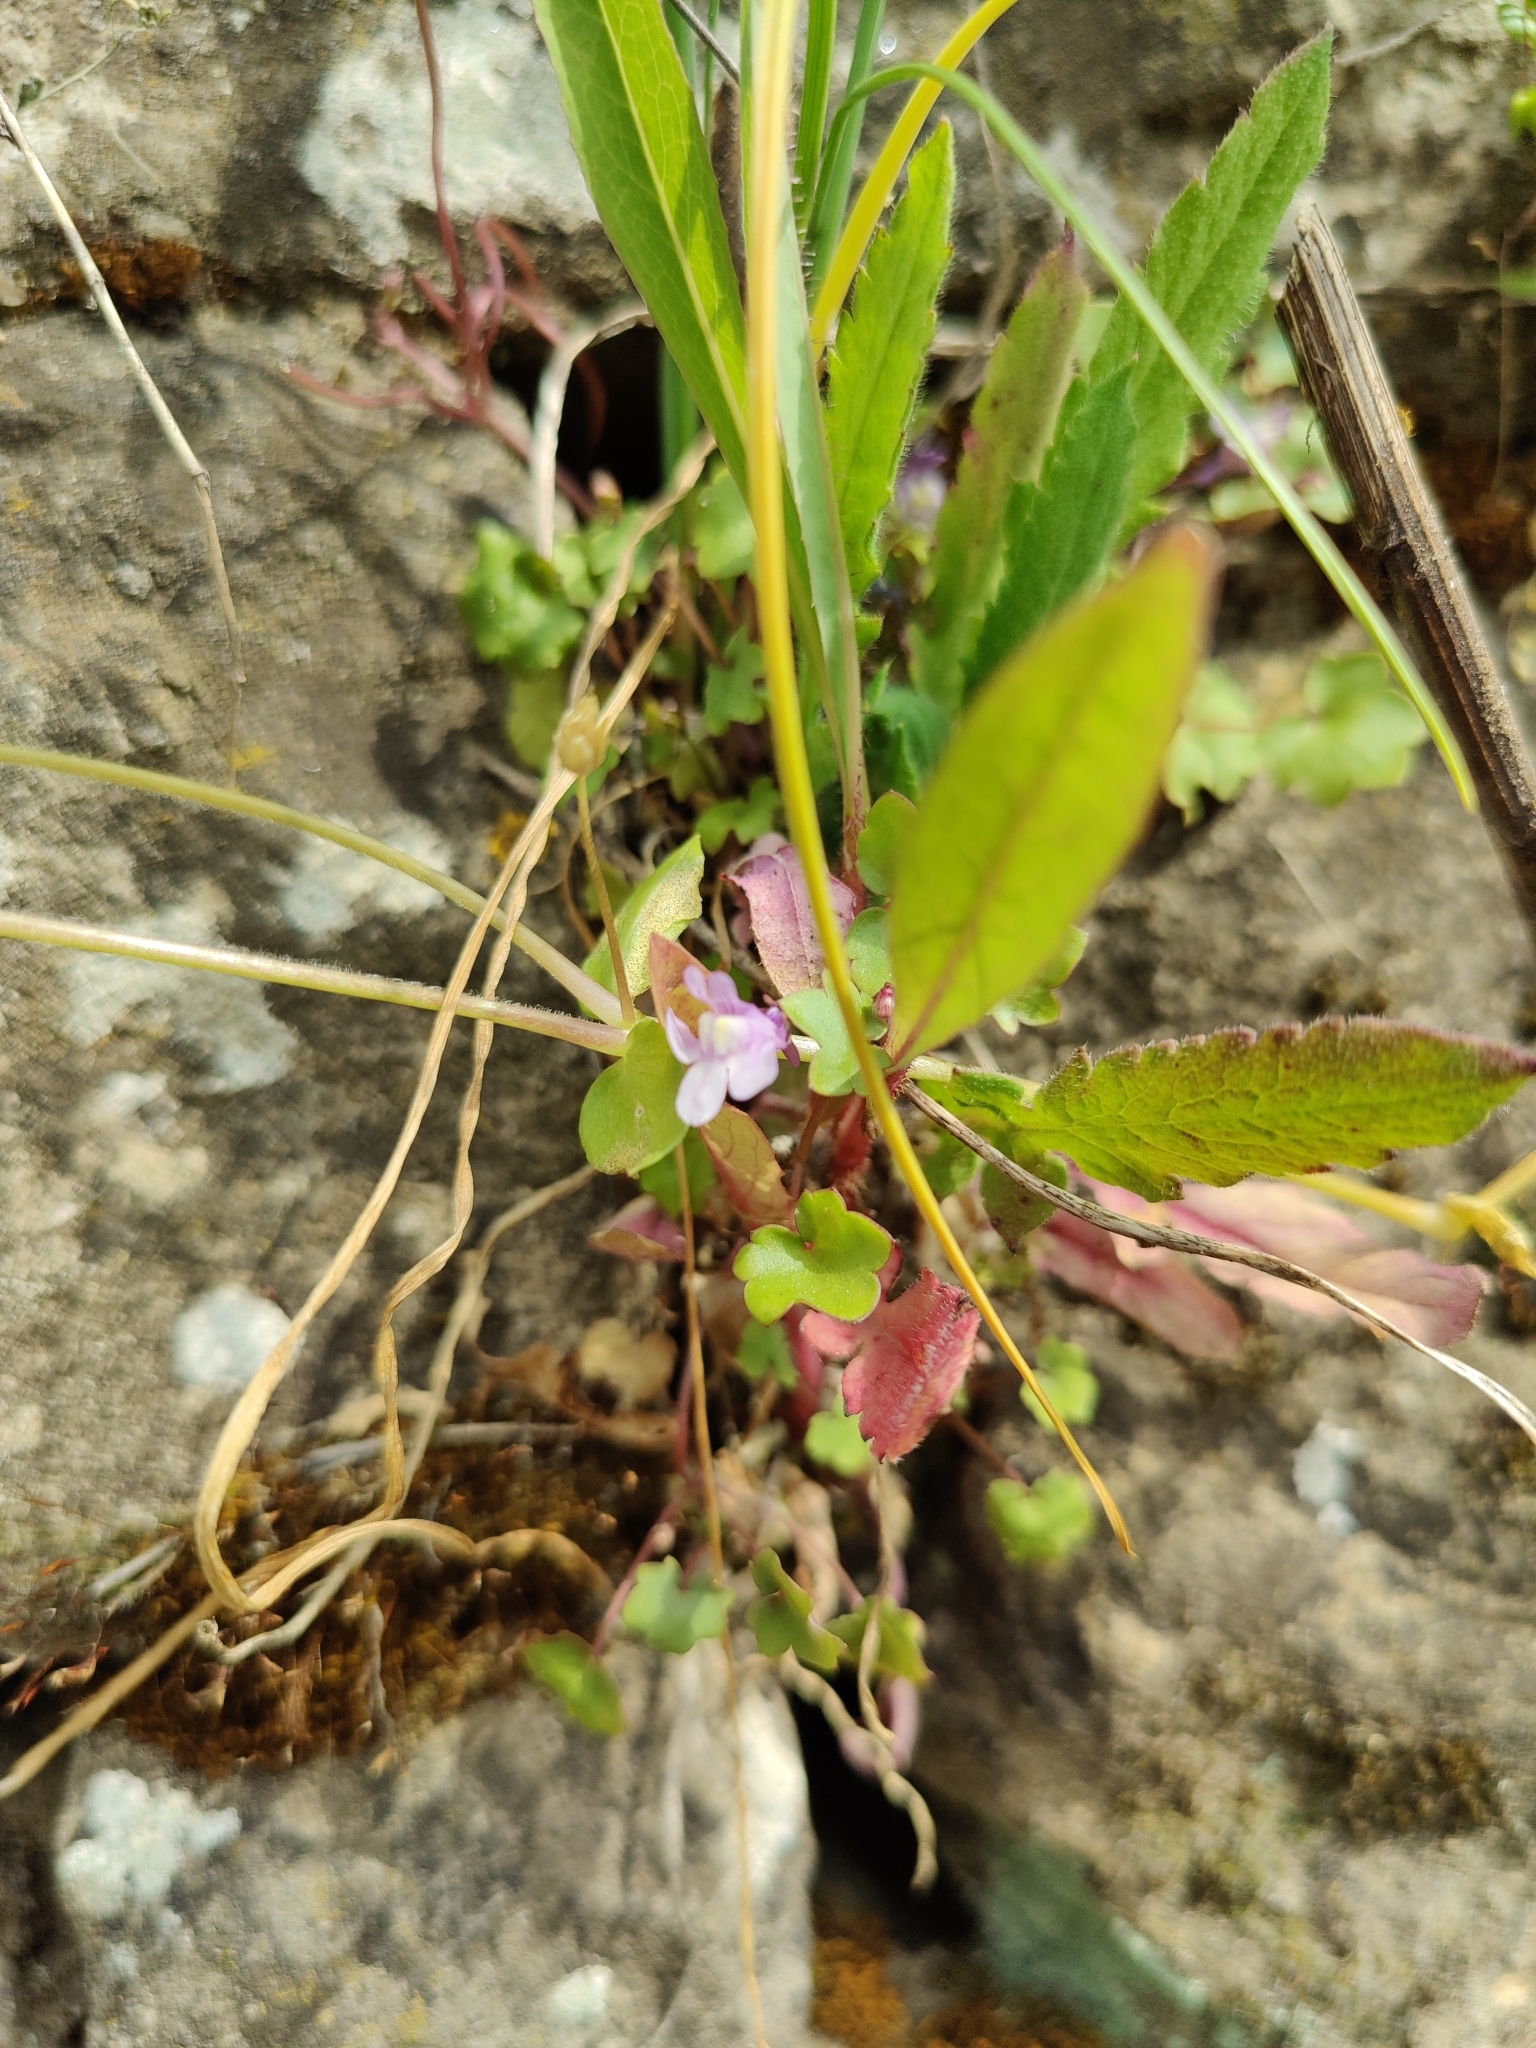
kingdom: Plantae
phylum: Tracheophyta
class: Magnoliopsida
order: Lamiales
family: Plantaginaceae
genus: Cymbalaria
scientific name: Cymbalaria muralis
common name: Ivy-leaved toadflax
